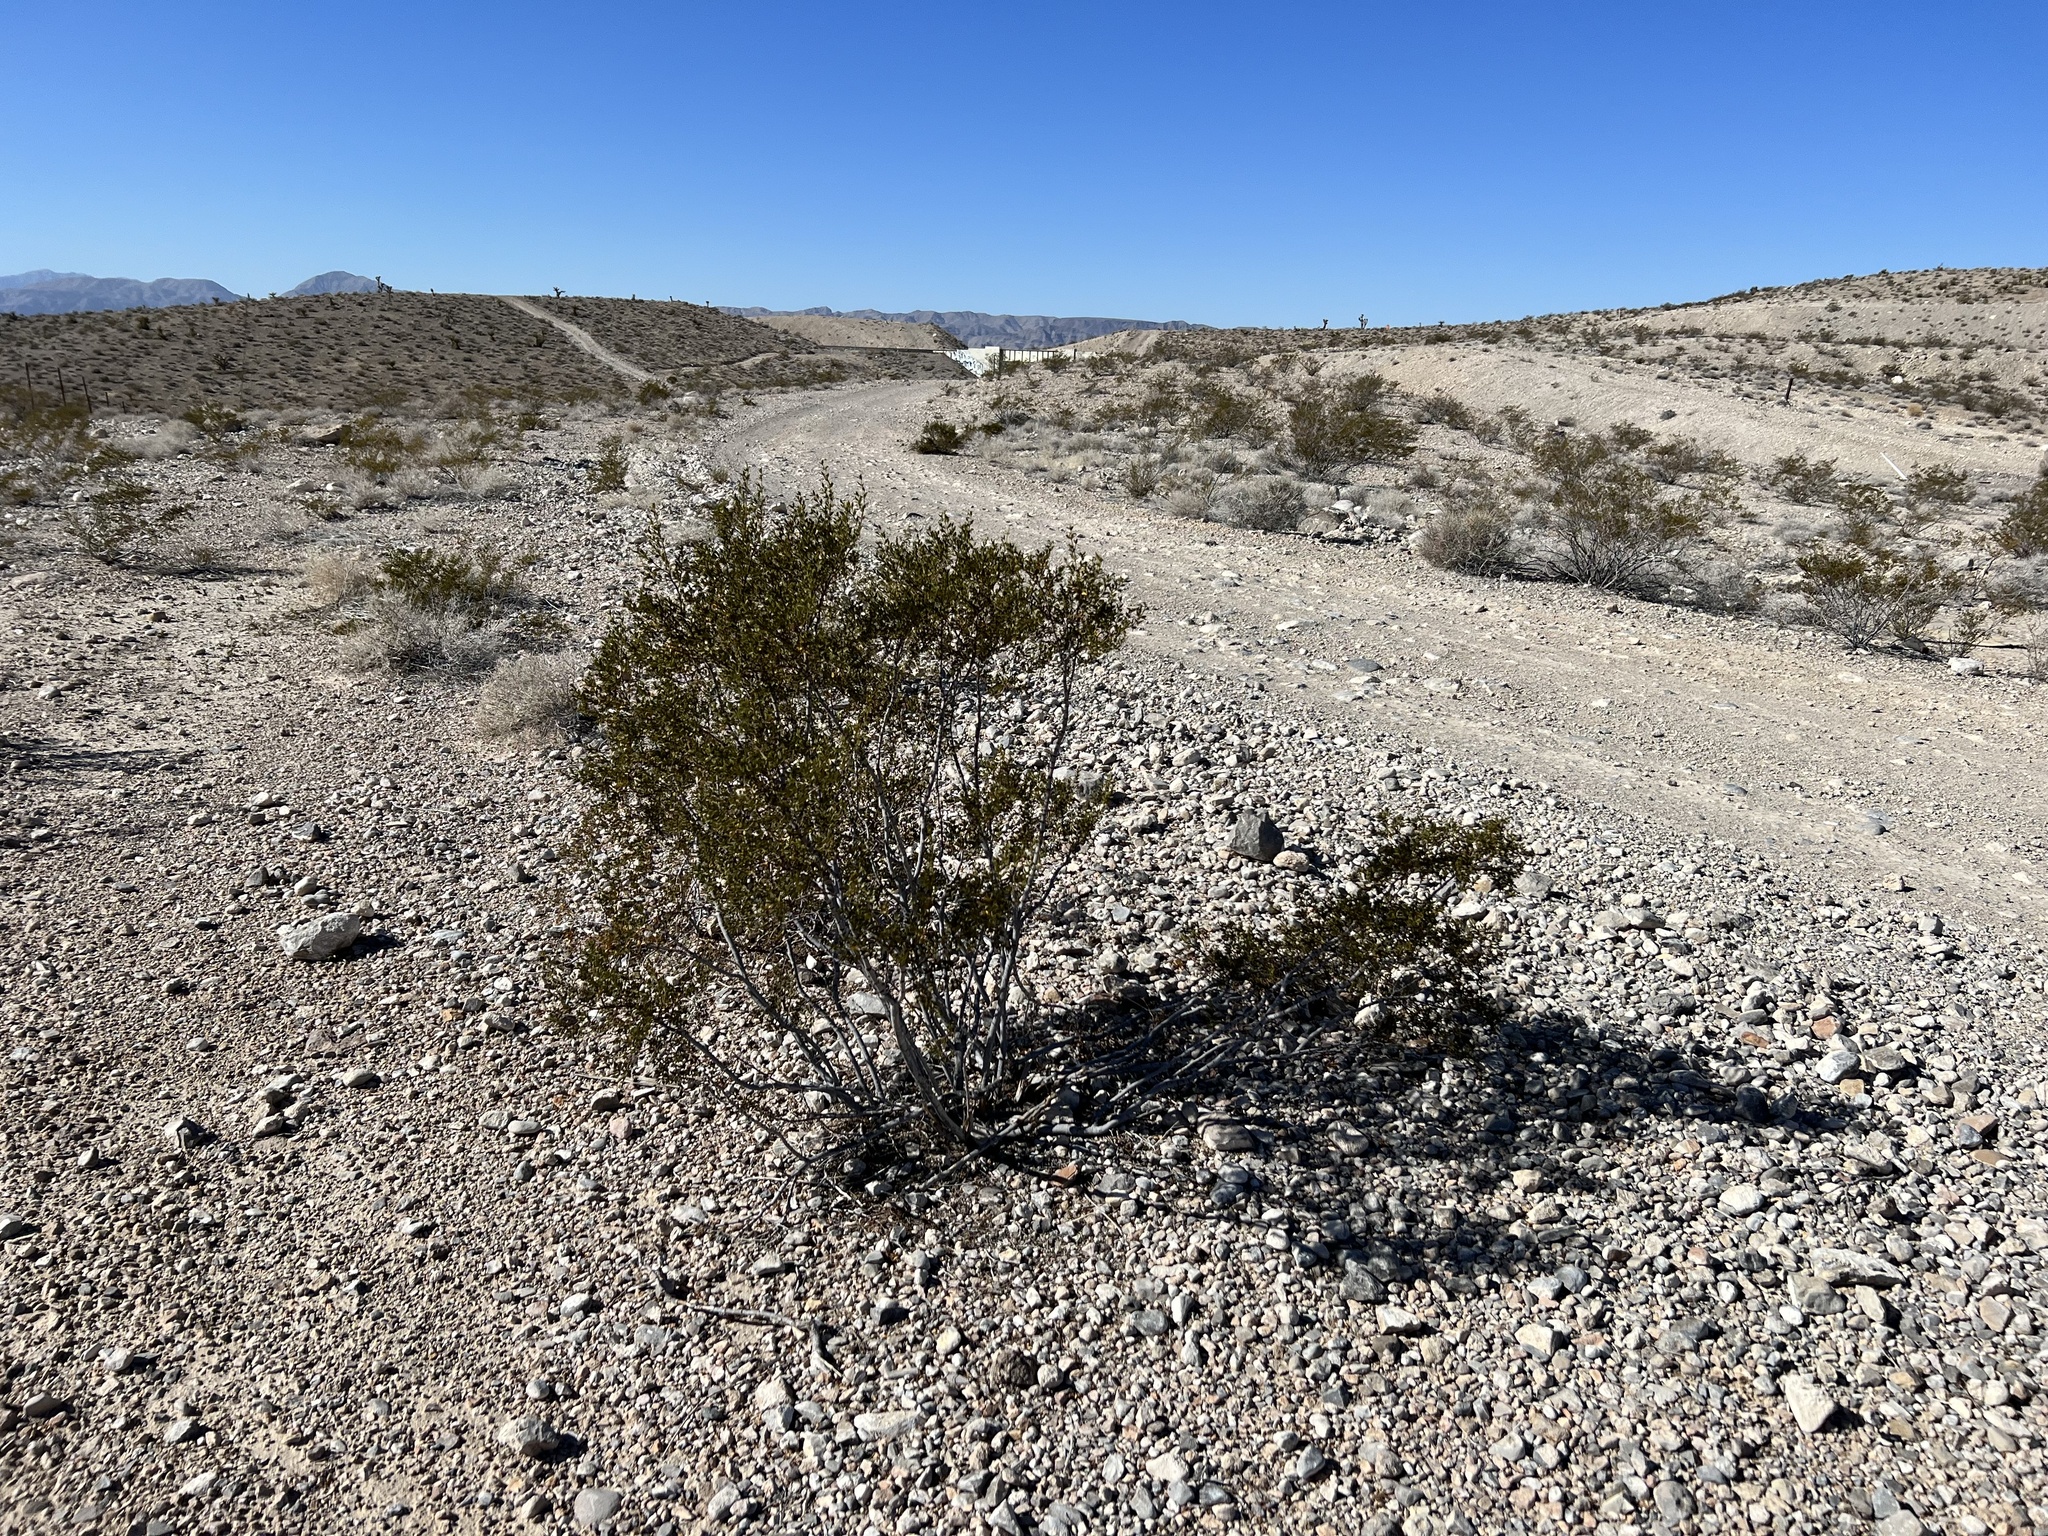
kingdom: Plantae
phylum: Tracheophyta
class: Magnoliopsida
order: Zygophyllales
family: Zygophyllaceae
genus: Larrea
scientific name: Larrea tridentata
